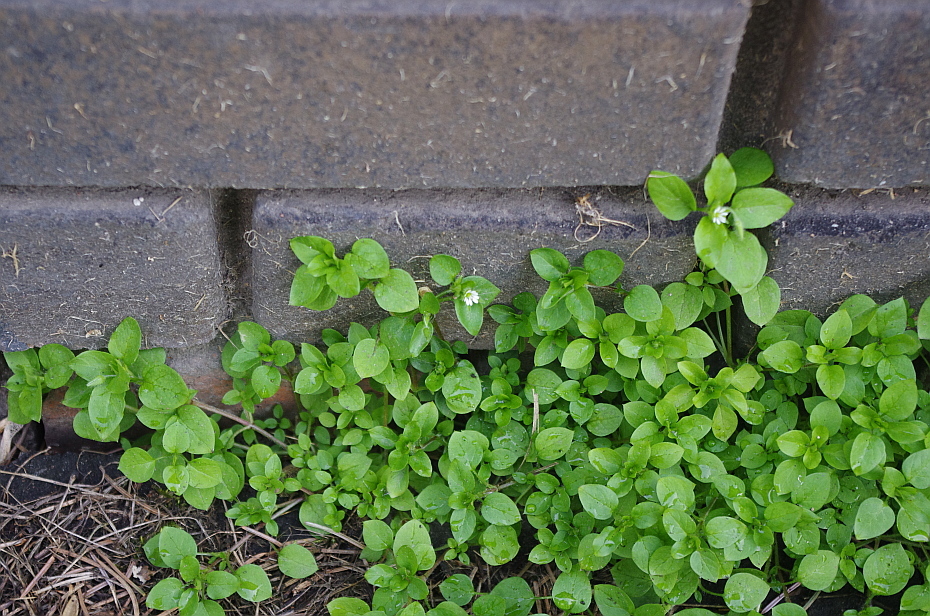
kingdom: Plantae
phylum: Tracheophyta
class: Magnoliopsida
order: Caryophyllales
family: Caryophyllaceae
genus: Stellaria
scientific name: Stellaria media
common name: Common chickweed
